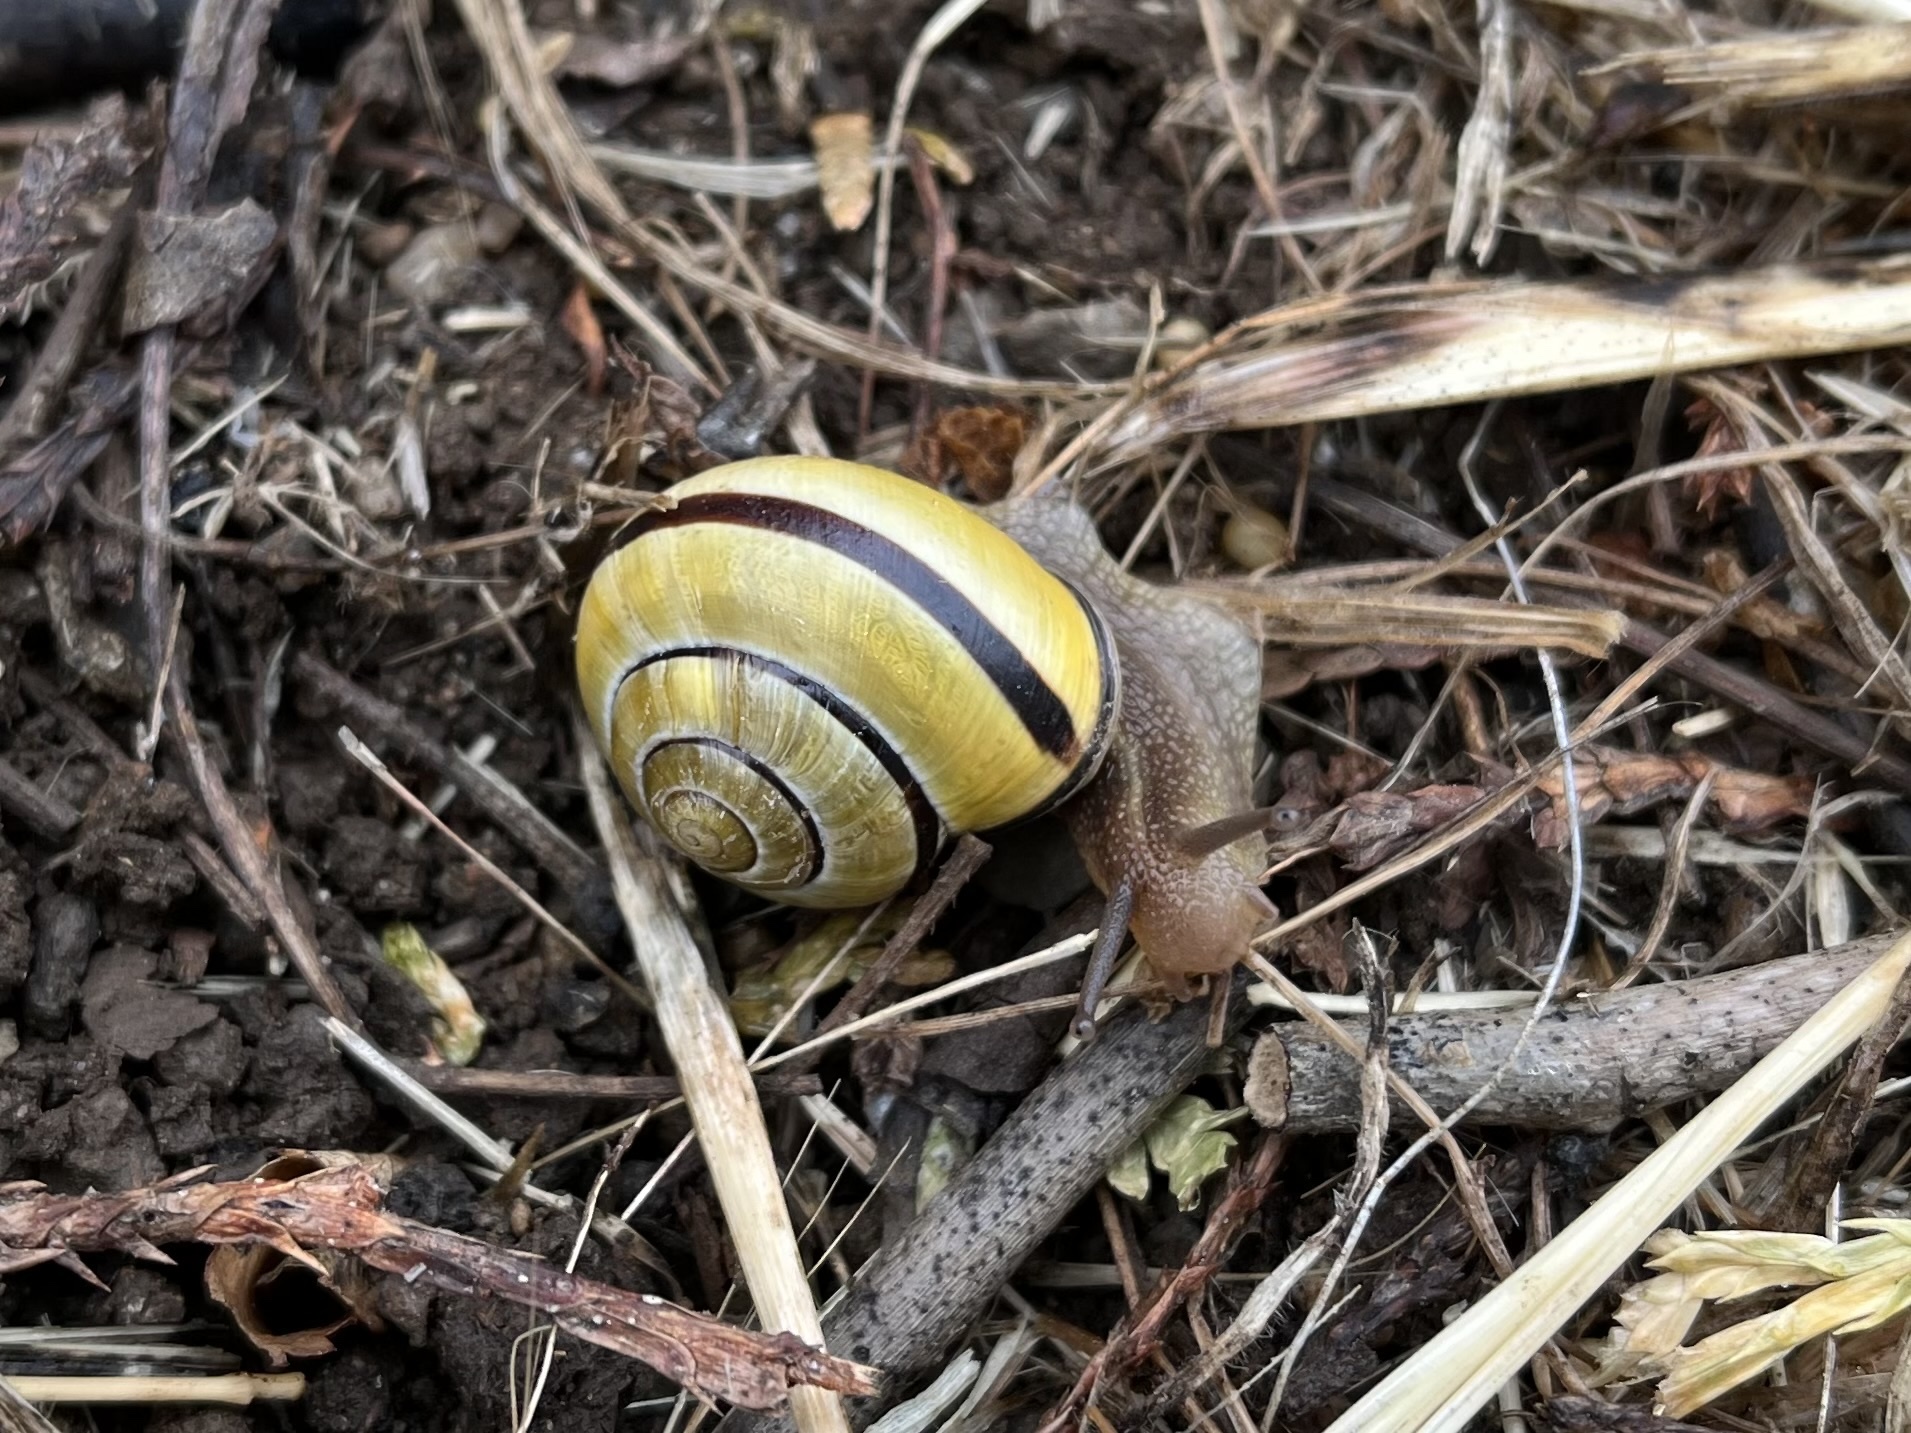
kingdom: Animalia
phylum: Mollusca
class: Gastropoda
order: Stylommatophora
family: Helicidae
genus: Cepaea
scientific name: Cepaea nemoralis
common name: Grovesnail
